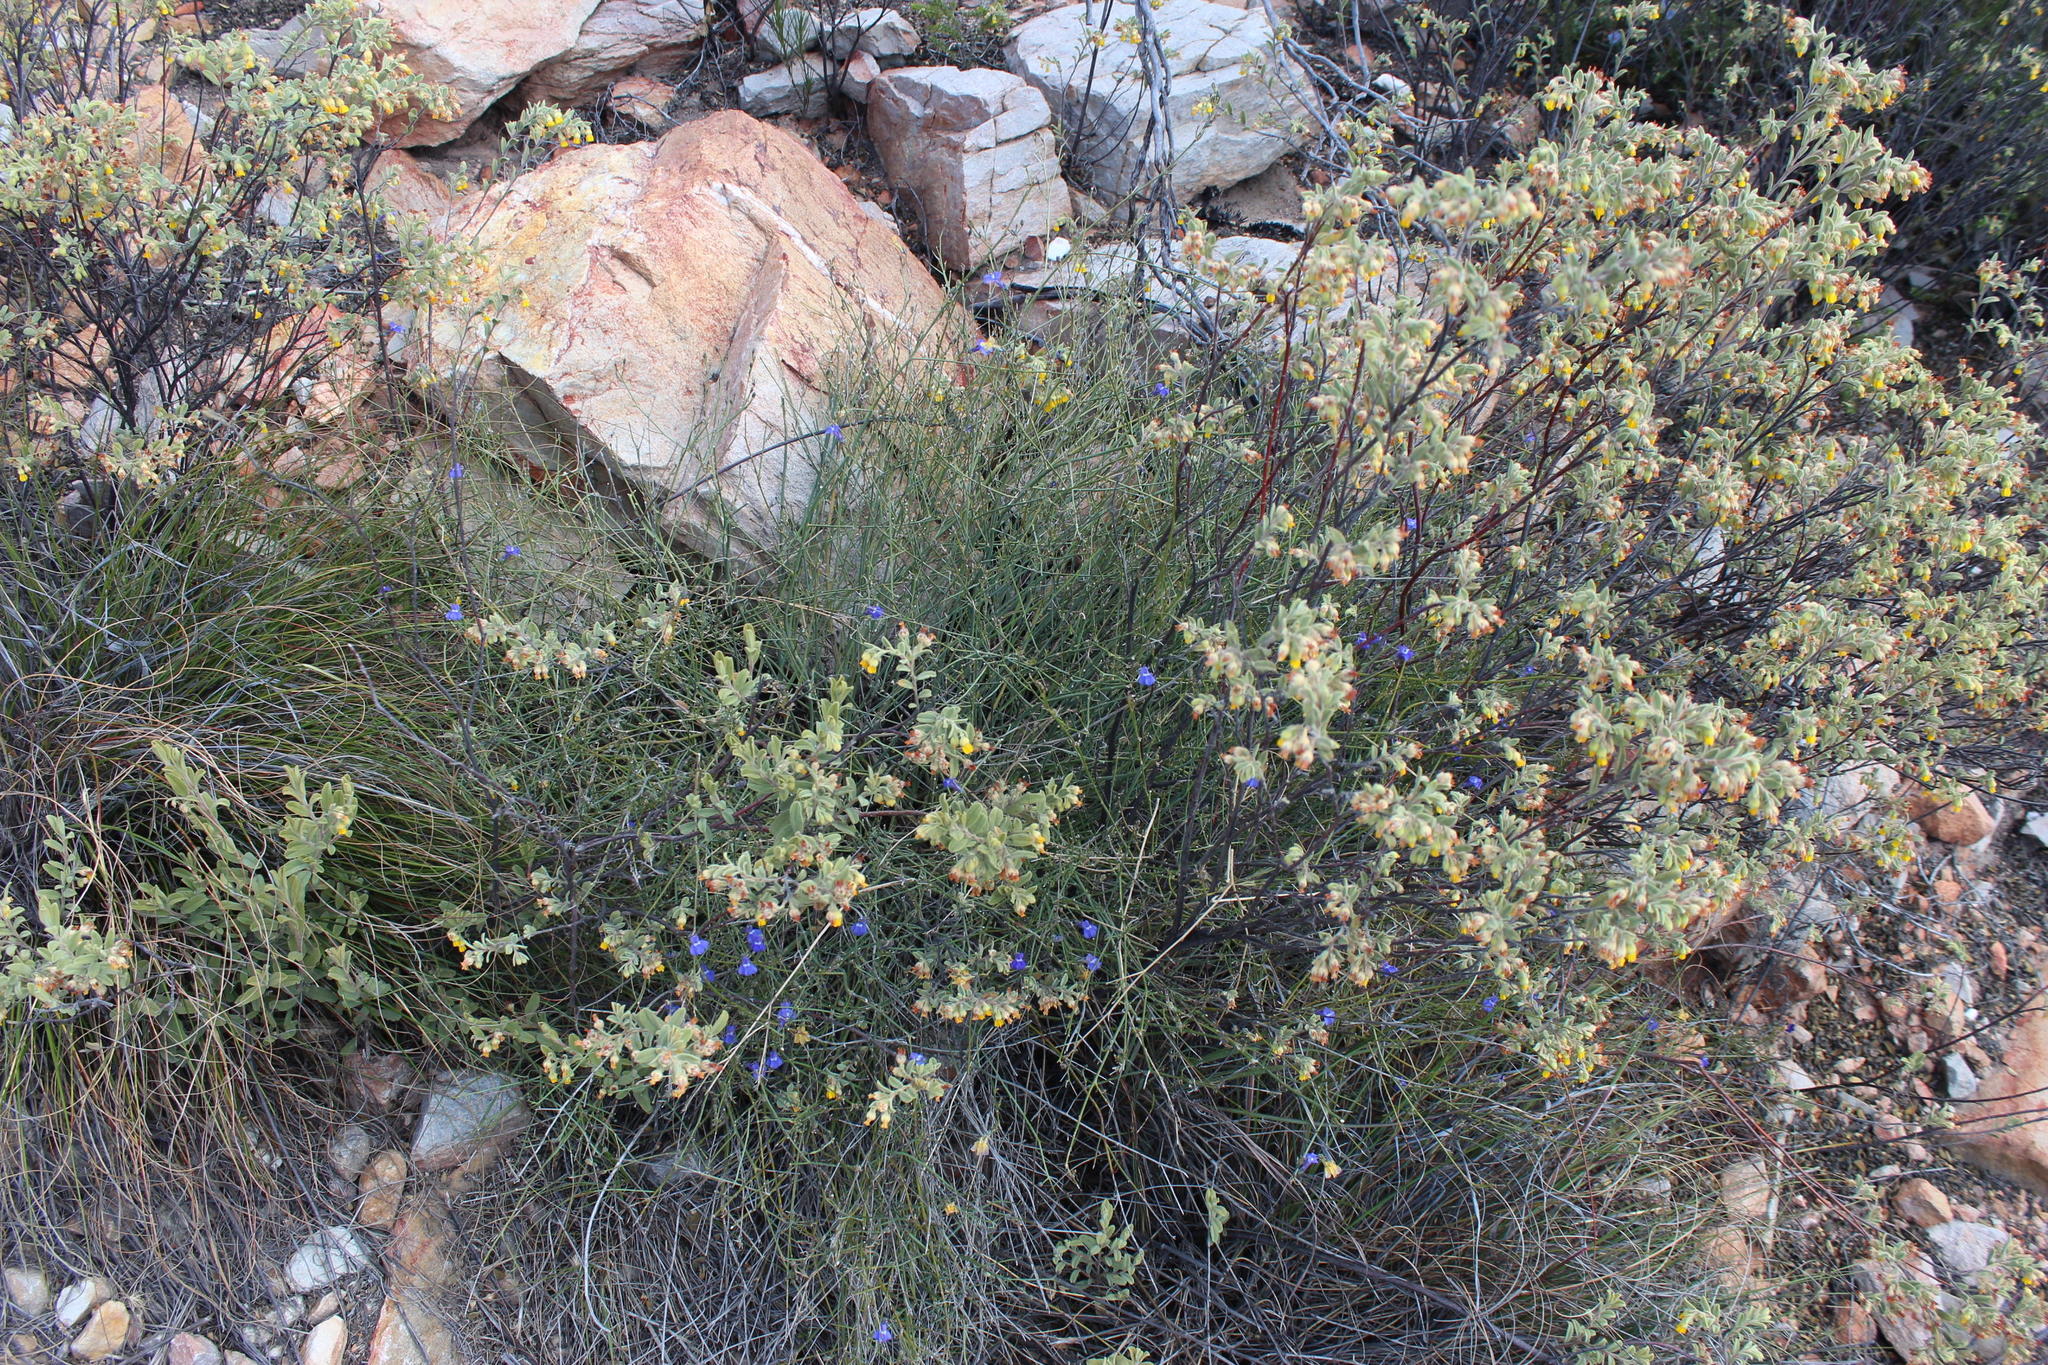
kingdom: Plantae
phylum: Tracheophyta
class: Magnoliopsida
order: Asterales
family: Campanulaceae
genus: Lobelia
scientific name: Lobelia linearis
